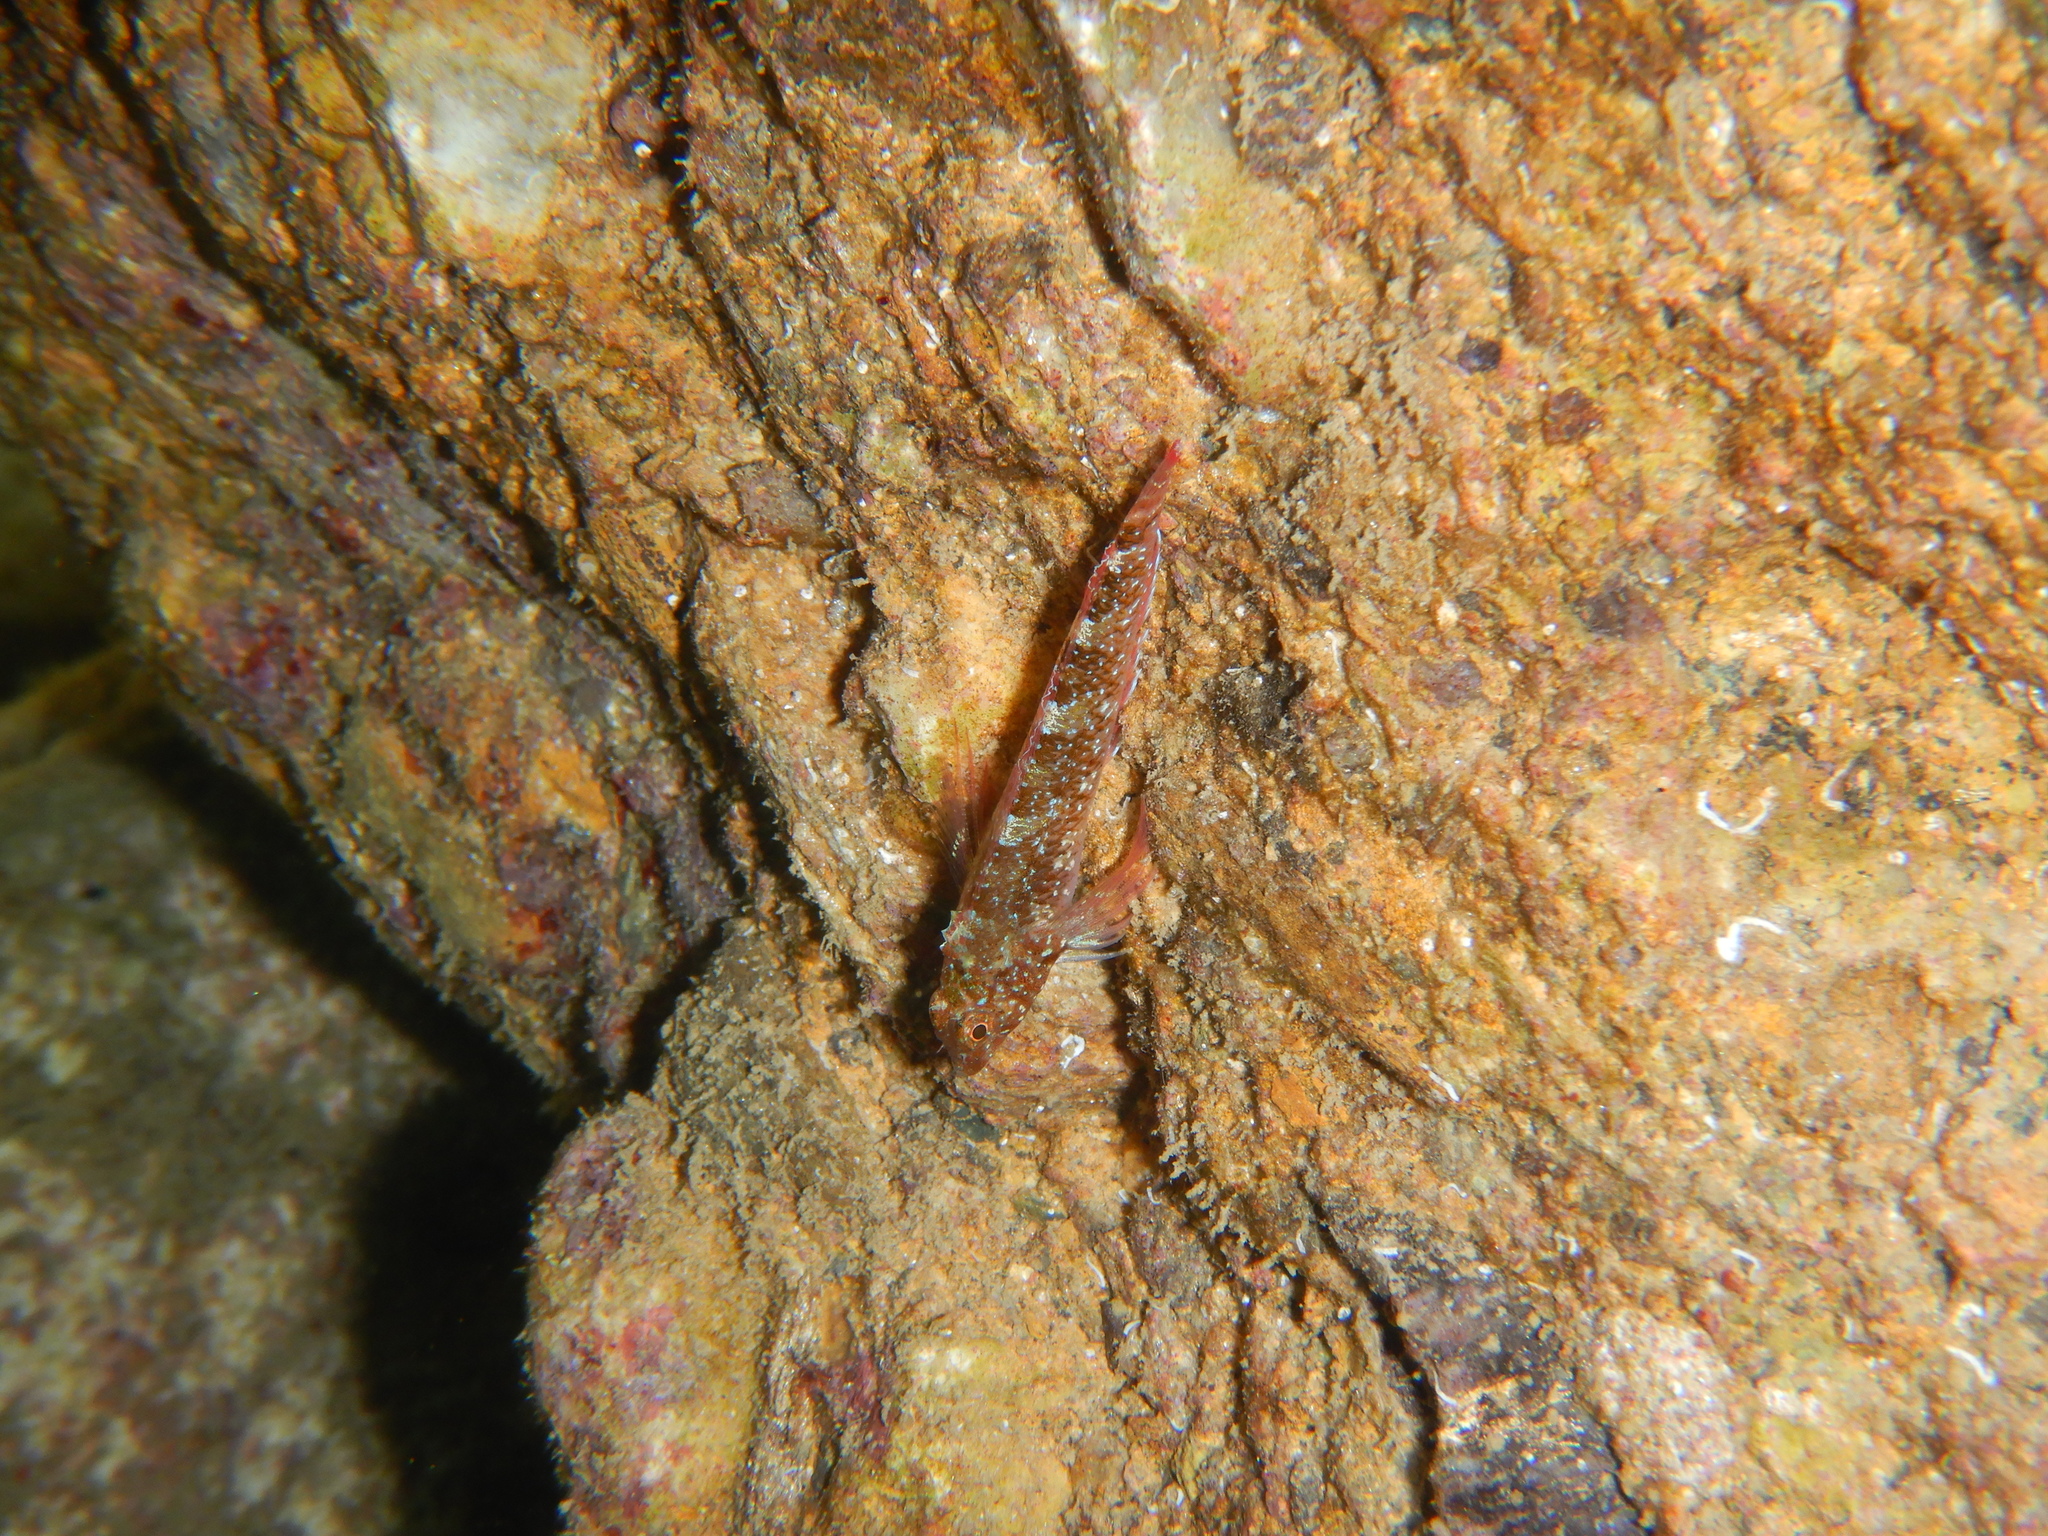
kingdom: Animalia
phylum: Chordata
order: Perciformes
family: Tripterygiidae
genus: Tripterygion
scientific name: Tripterygion tripteronotum
